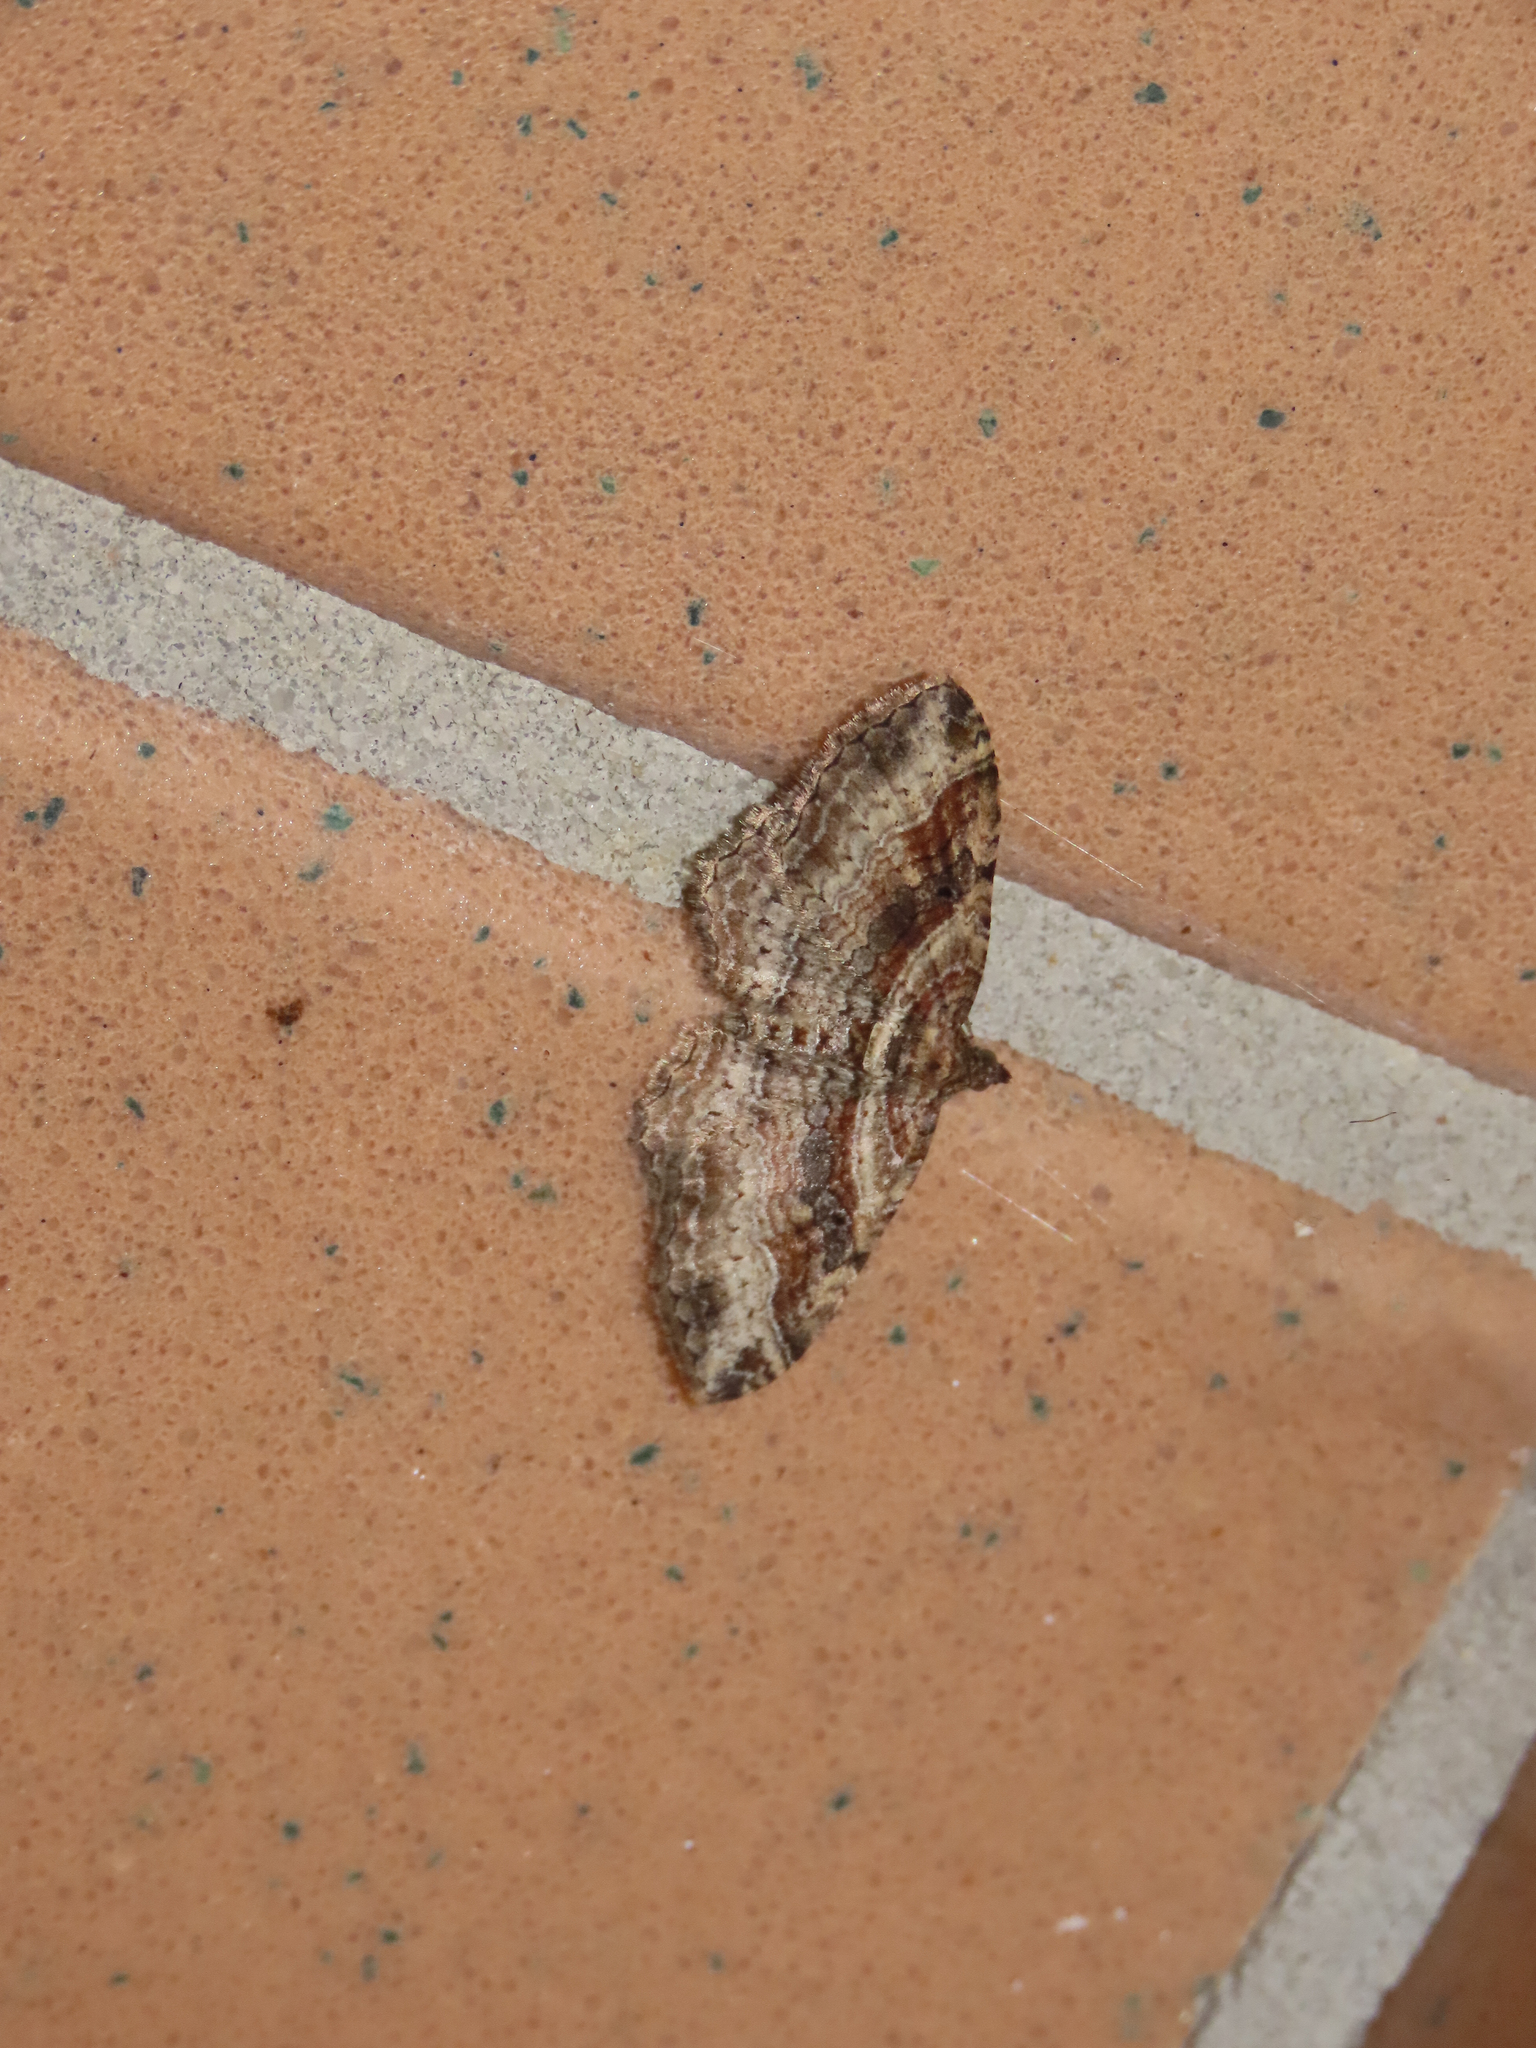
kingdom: Animalia
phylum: Arthropoda
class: Insecta
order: Lepidoptera
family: Geometridae
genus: Costaconvexa
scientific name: Costaconvexa centrostrigaria
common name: Bent-line carpet
